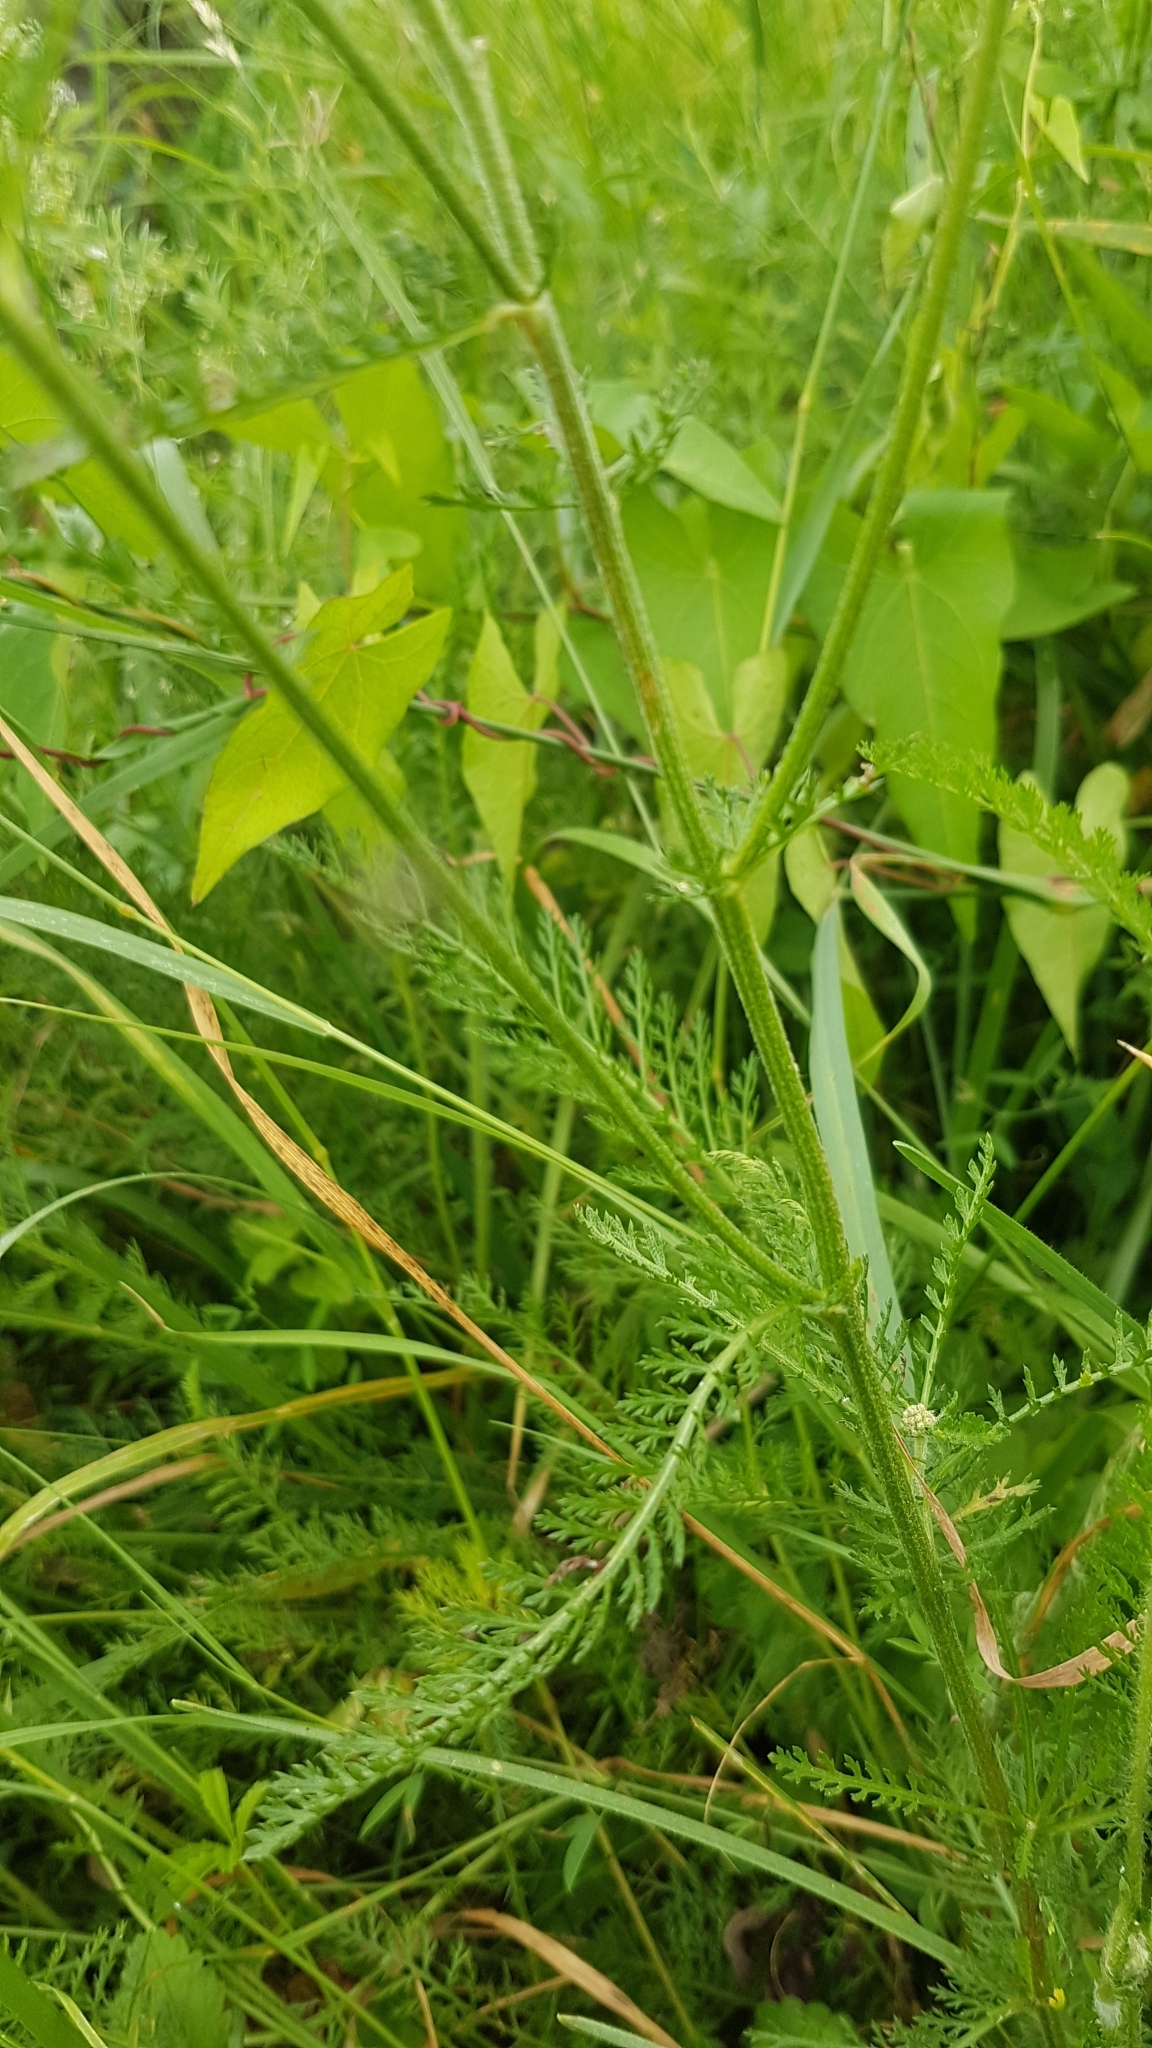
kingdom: Plantae
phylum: Tracheophyta
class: Magnoliopsida
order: Asterales
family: Asteraceae
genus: Achillea
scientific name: Achillea millefolium
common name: Yarrow
